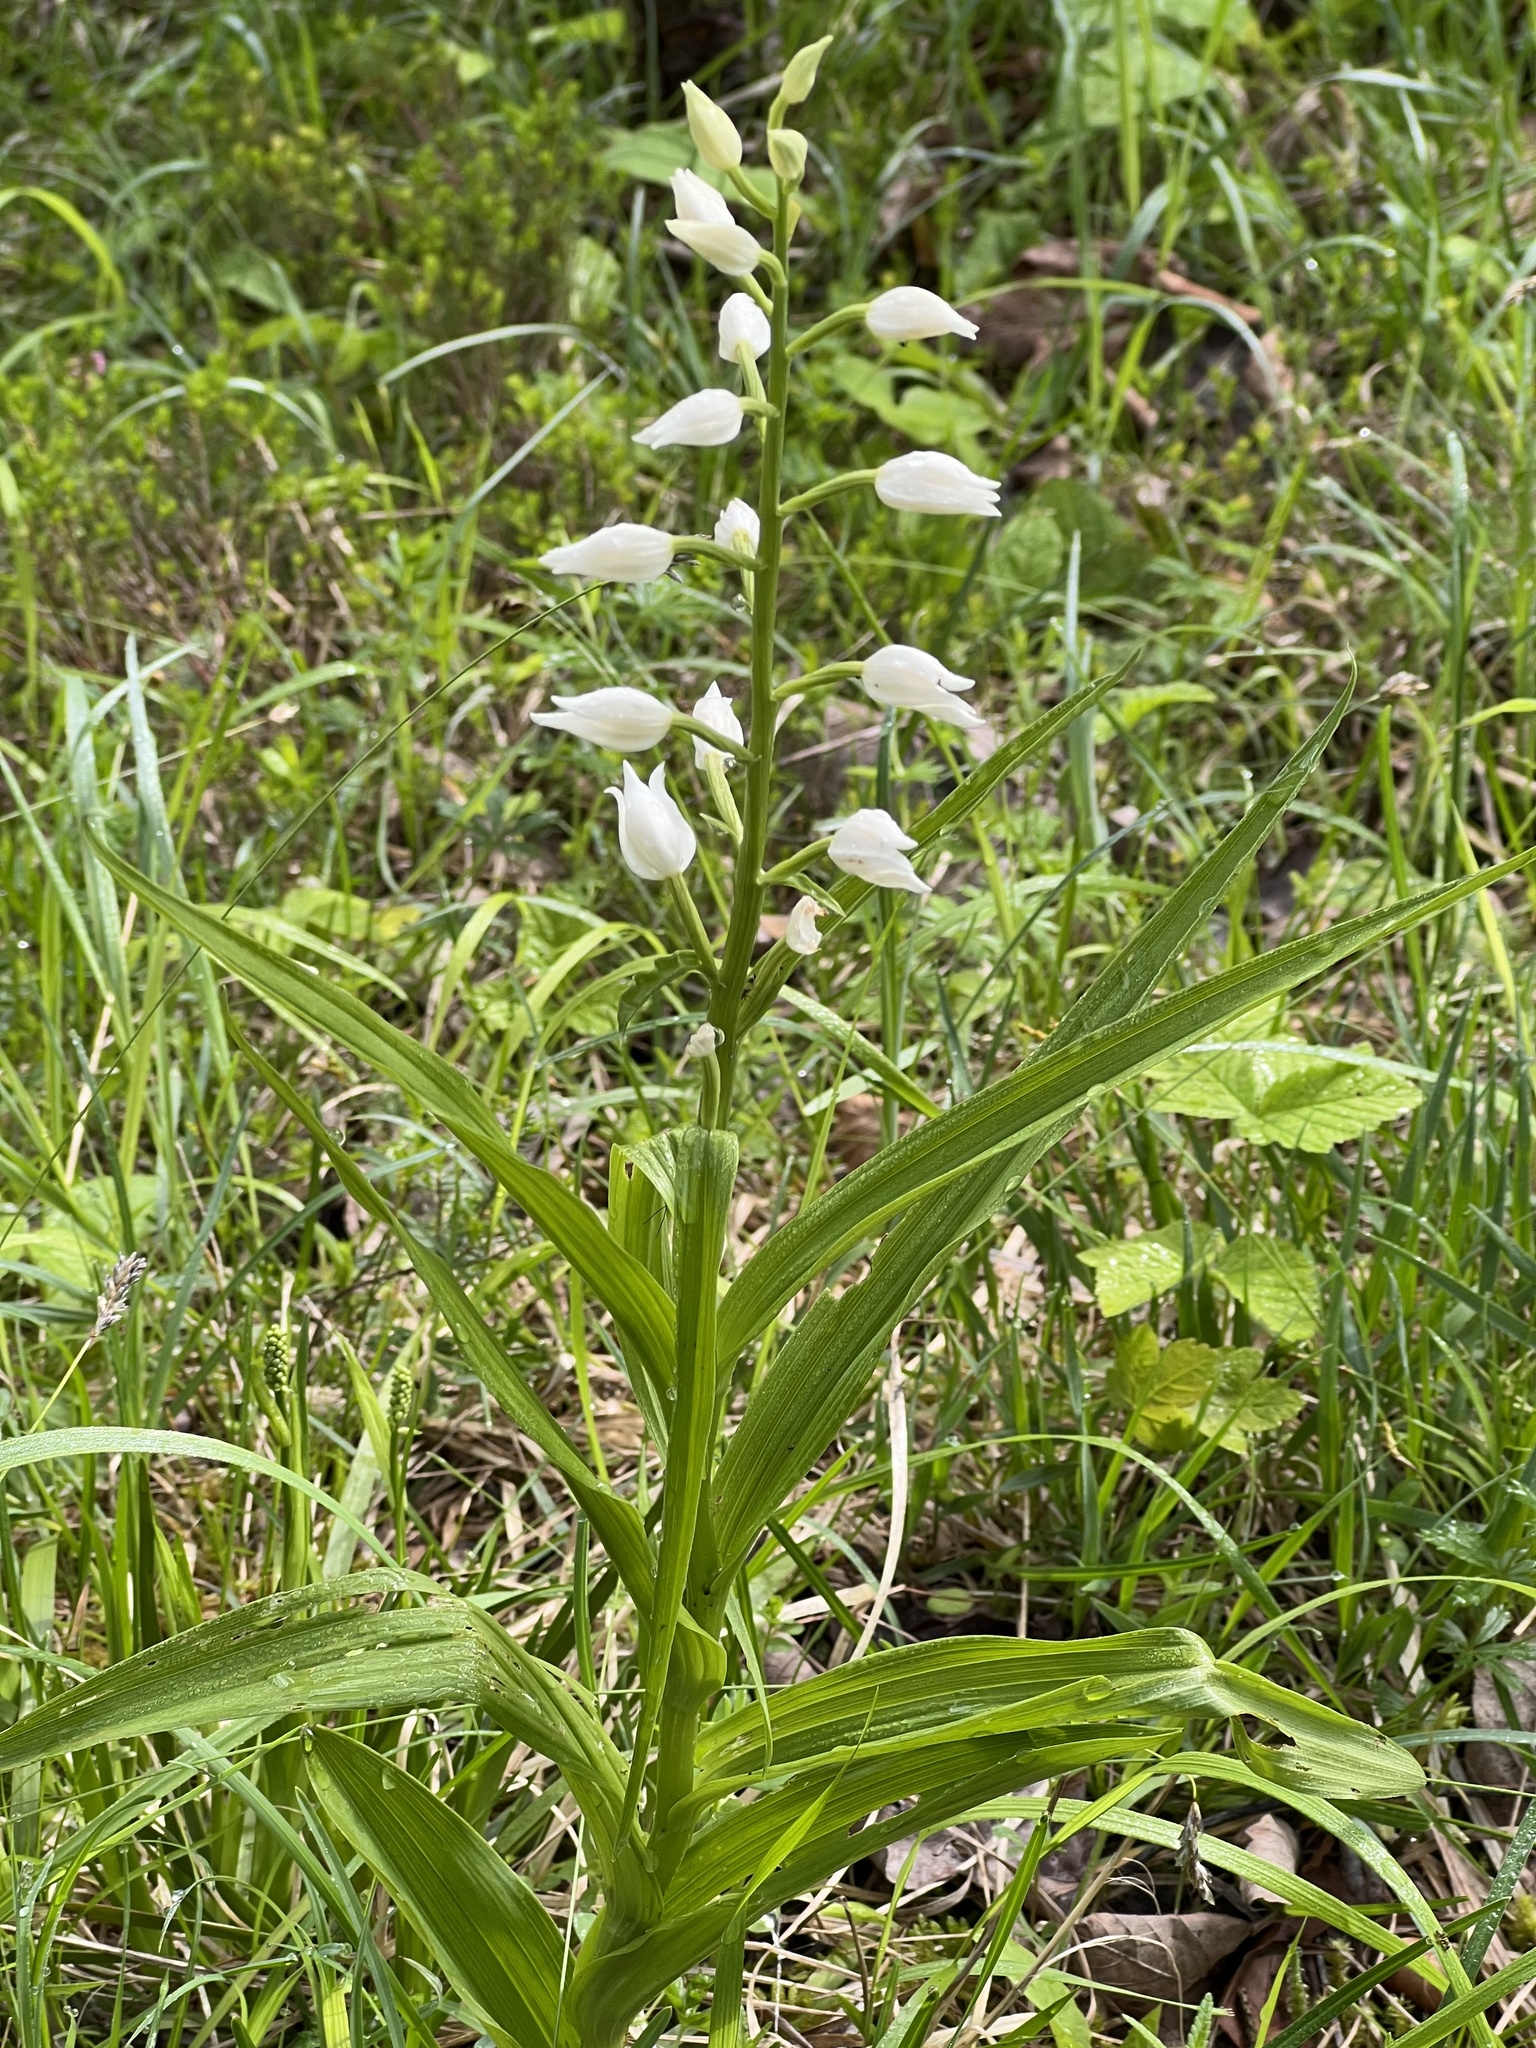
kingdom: Plantae
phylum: Tracheophyta
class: Liliopsida
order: Asparagales
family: Orchidaceae
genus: Cephalanthera
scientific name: Cephalanthera longifolia
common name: Narrow-leaved helleborine
